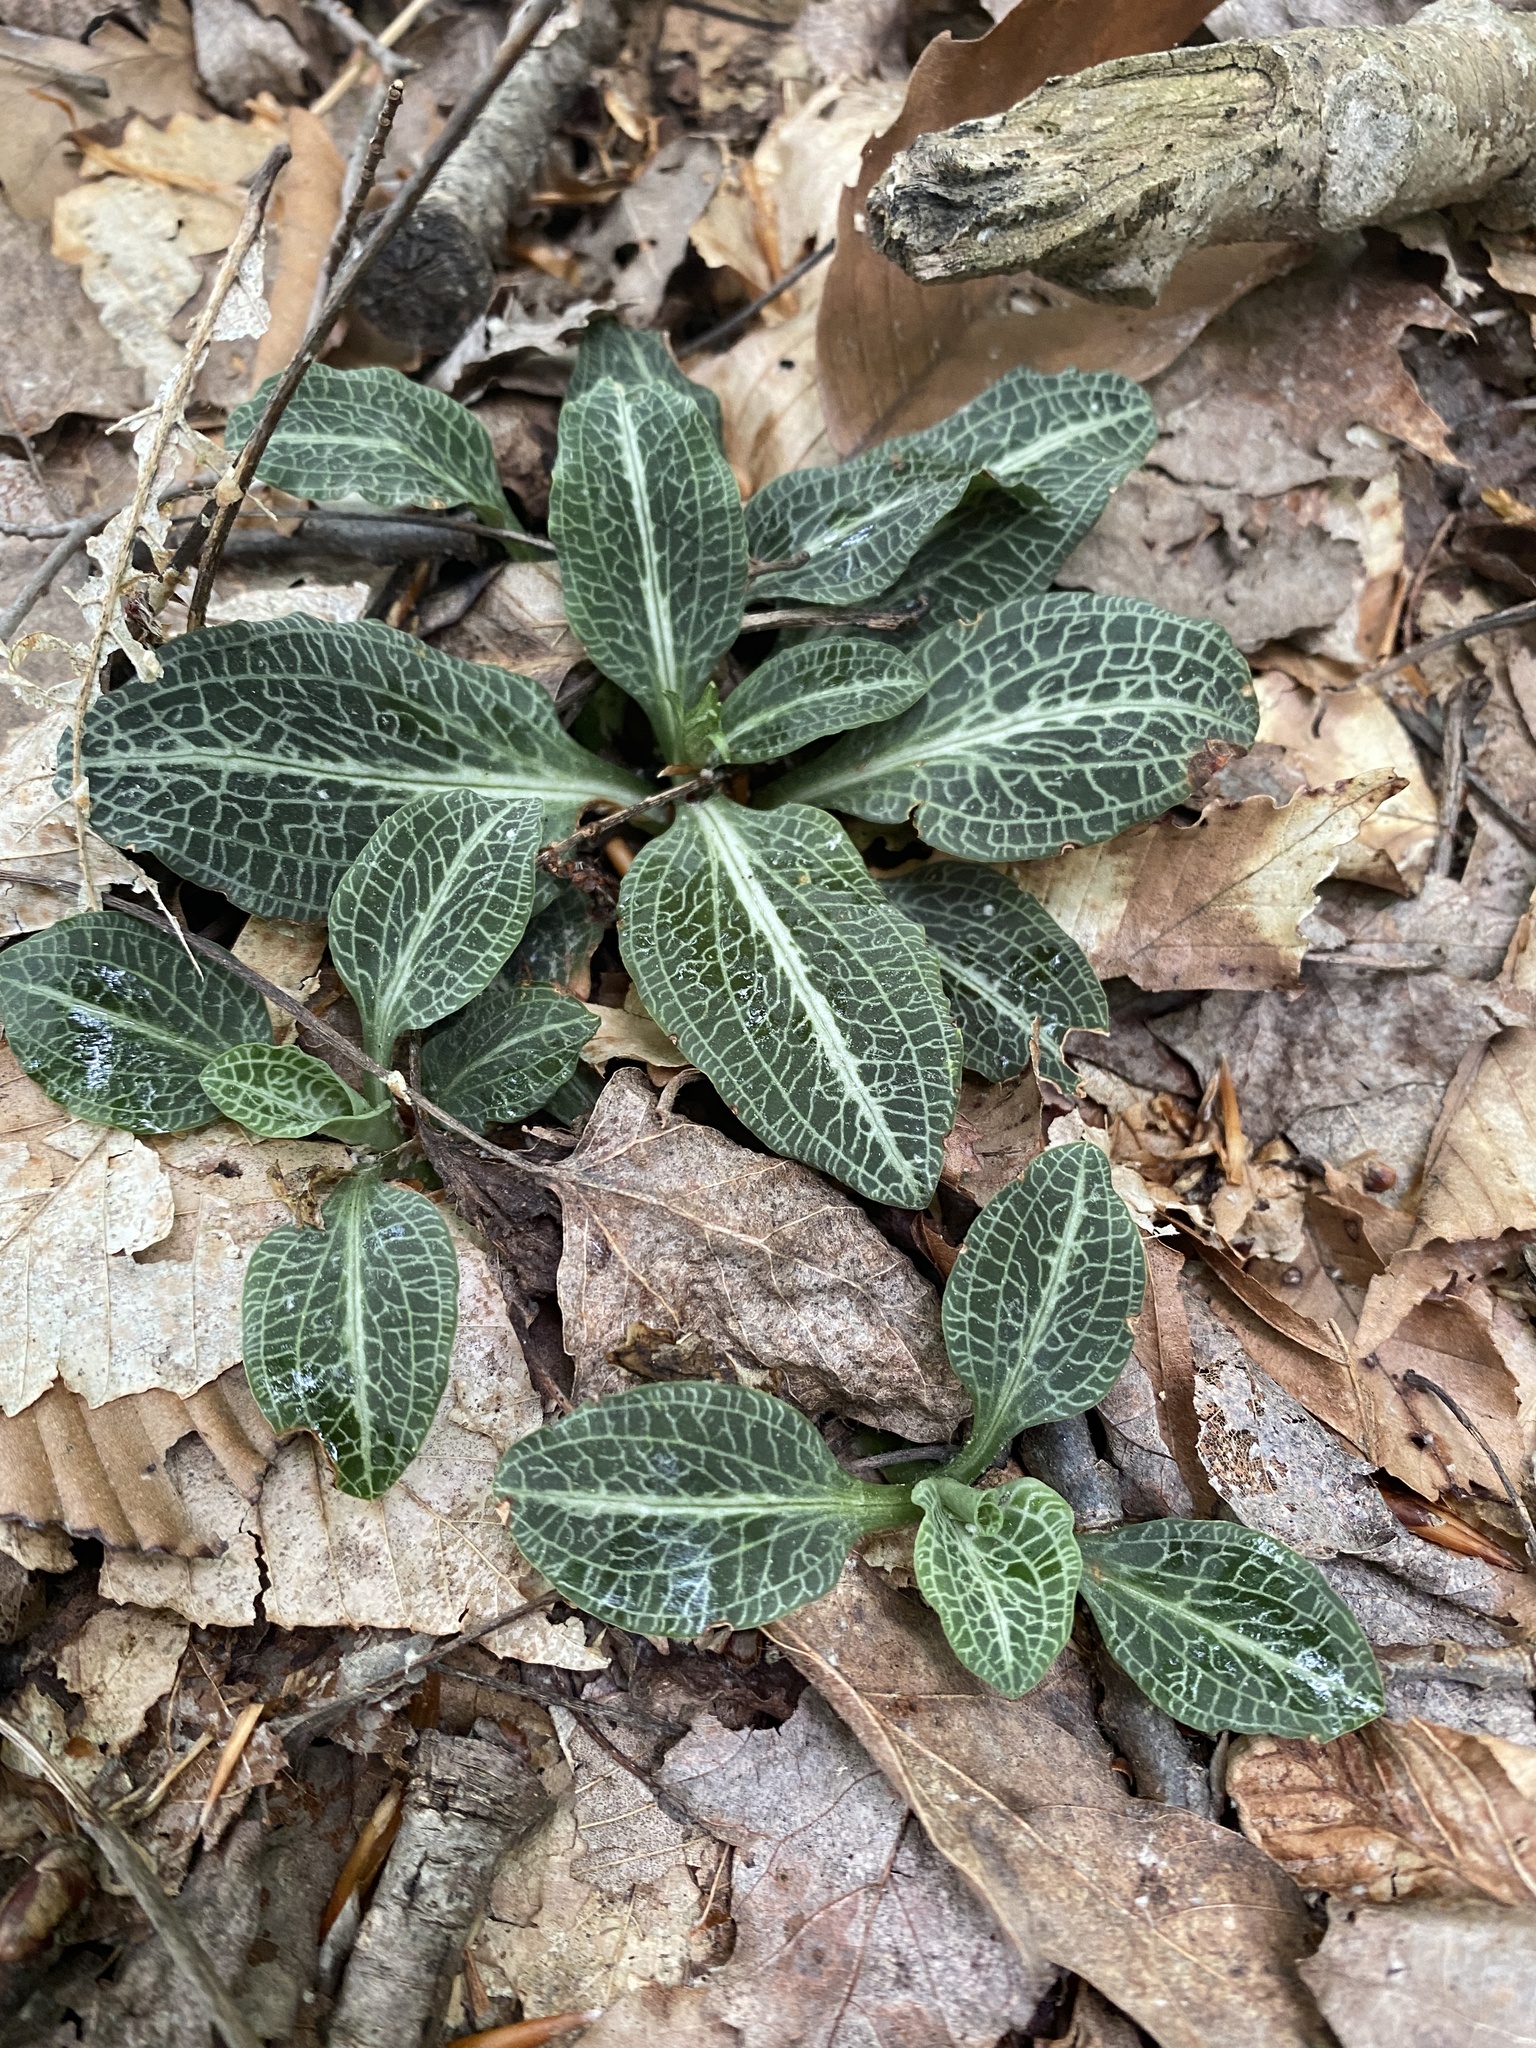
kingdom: Plantae
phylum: Tracheophyta
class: Liliopsida
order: Asparagales
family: Orchidaceae
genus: Goodyera
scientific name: Goodyera pubescens
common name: Downy rattlesnake-plantain
